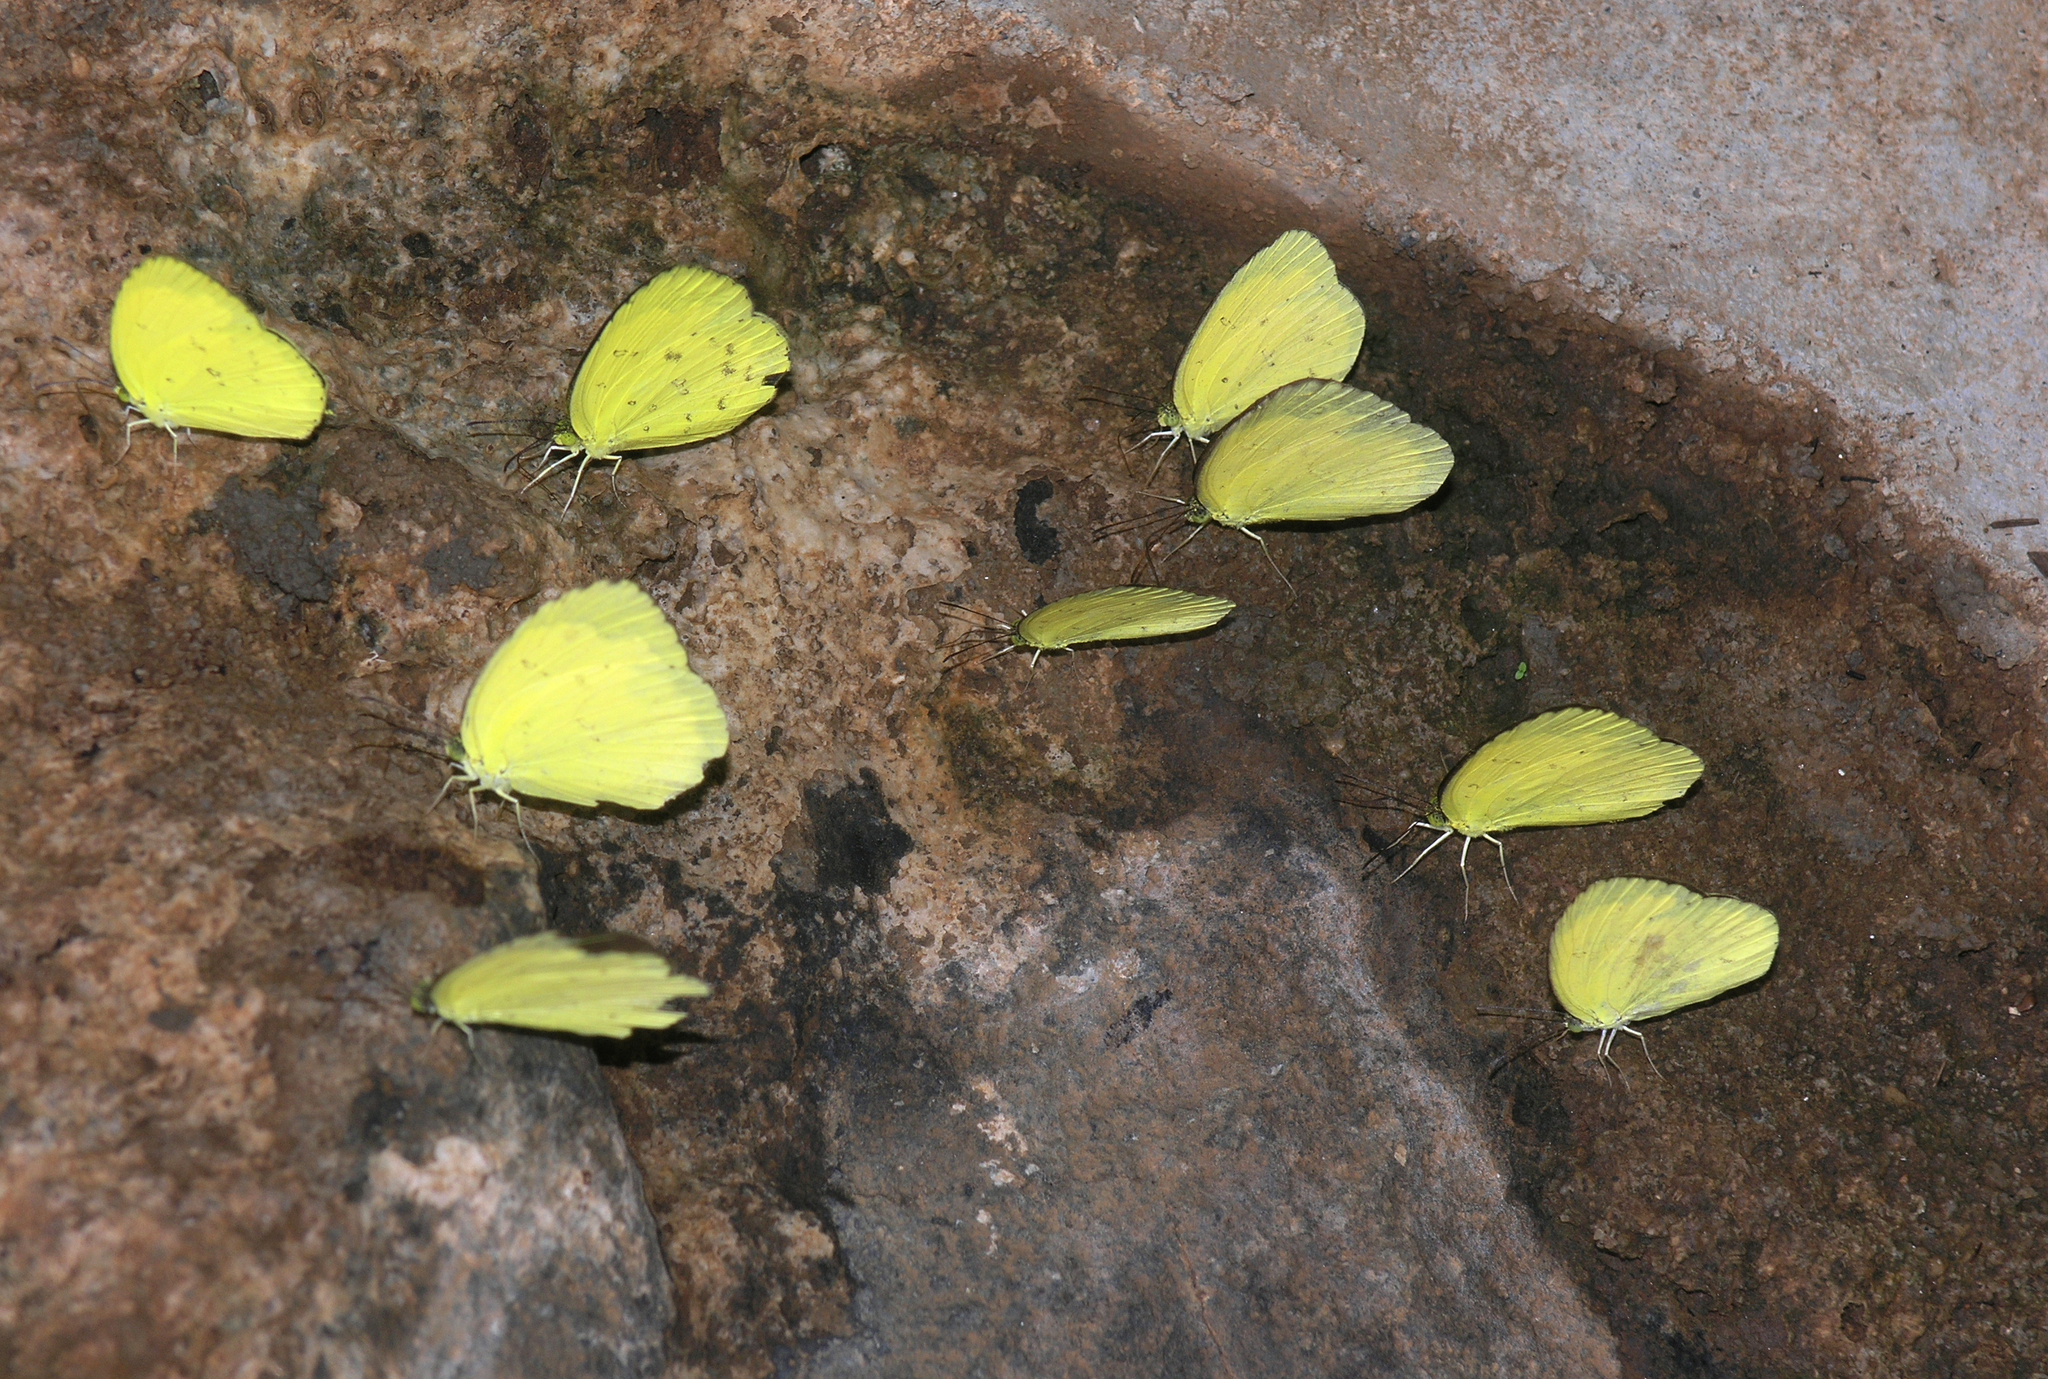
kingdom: Animalia
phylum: Arthropoda
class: Insecta
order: Lepidoptera
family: Pieridae
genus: Eurema
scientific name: Eurema hecabe
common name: Pale grass yellow
